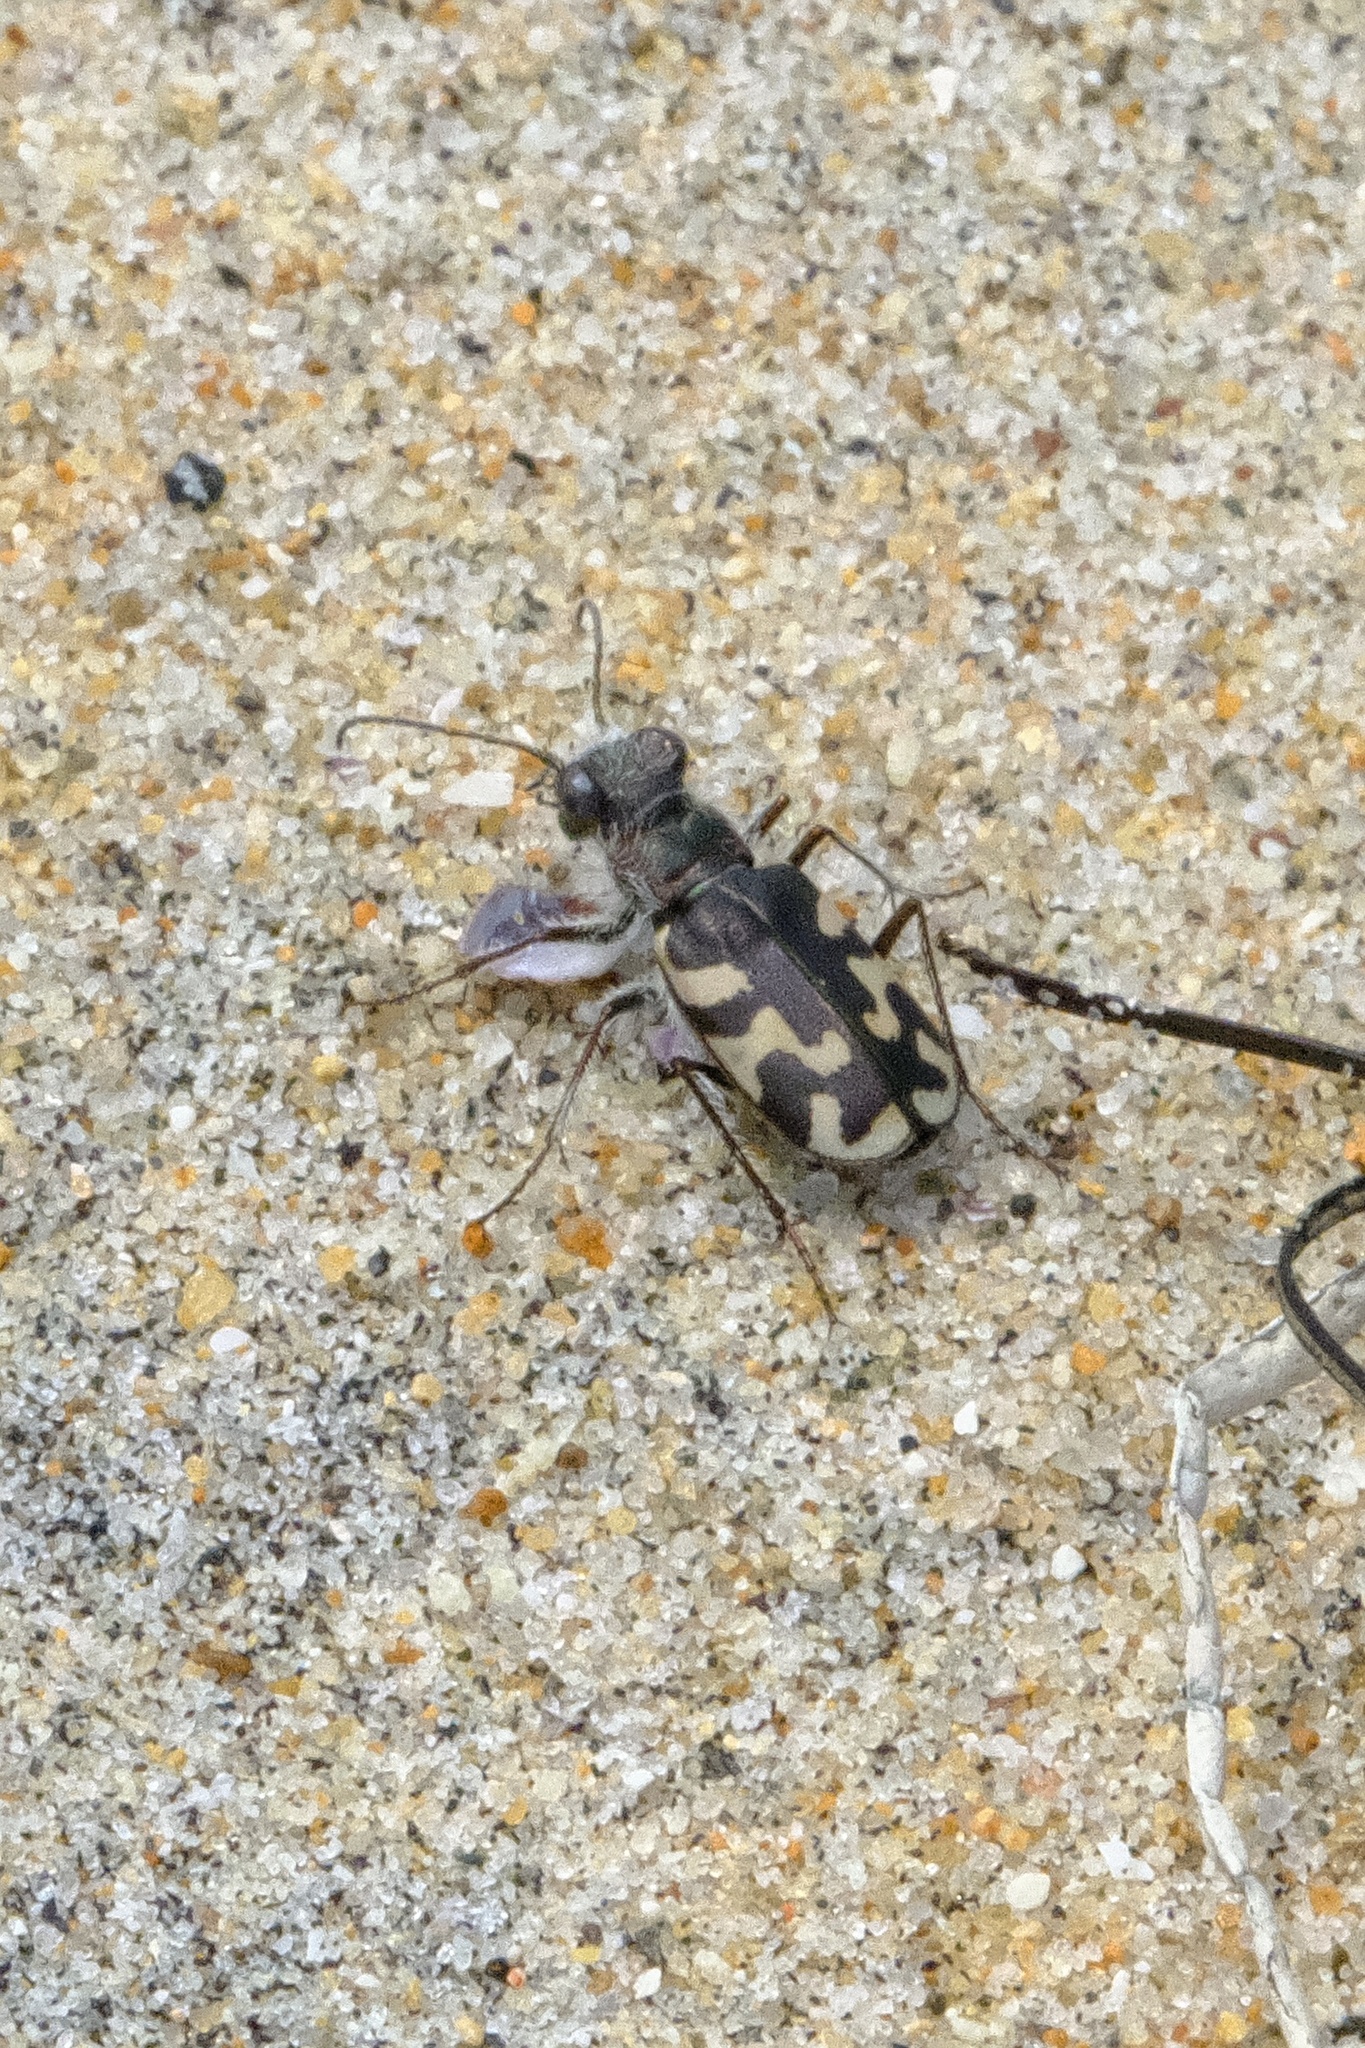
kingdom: Animalia
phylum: Arthropoda
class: Insecta
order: Coleoptera
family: Carabidae
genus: Cicindela
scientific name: Cicindela latesignata
